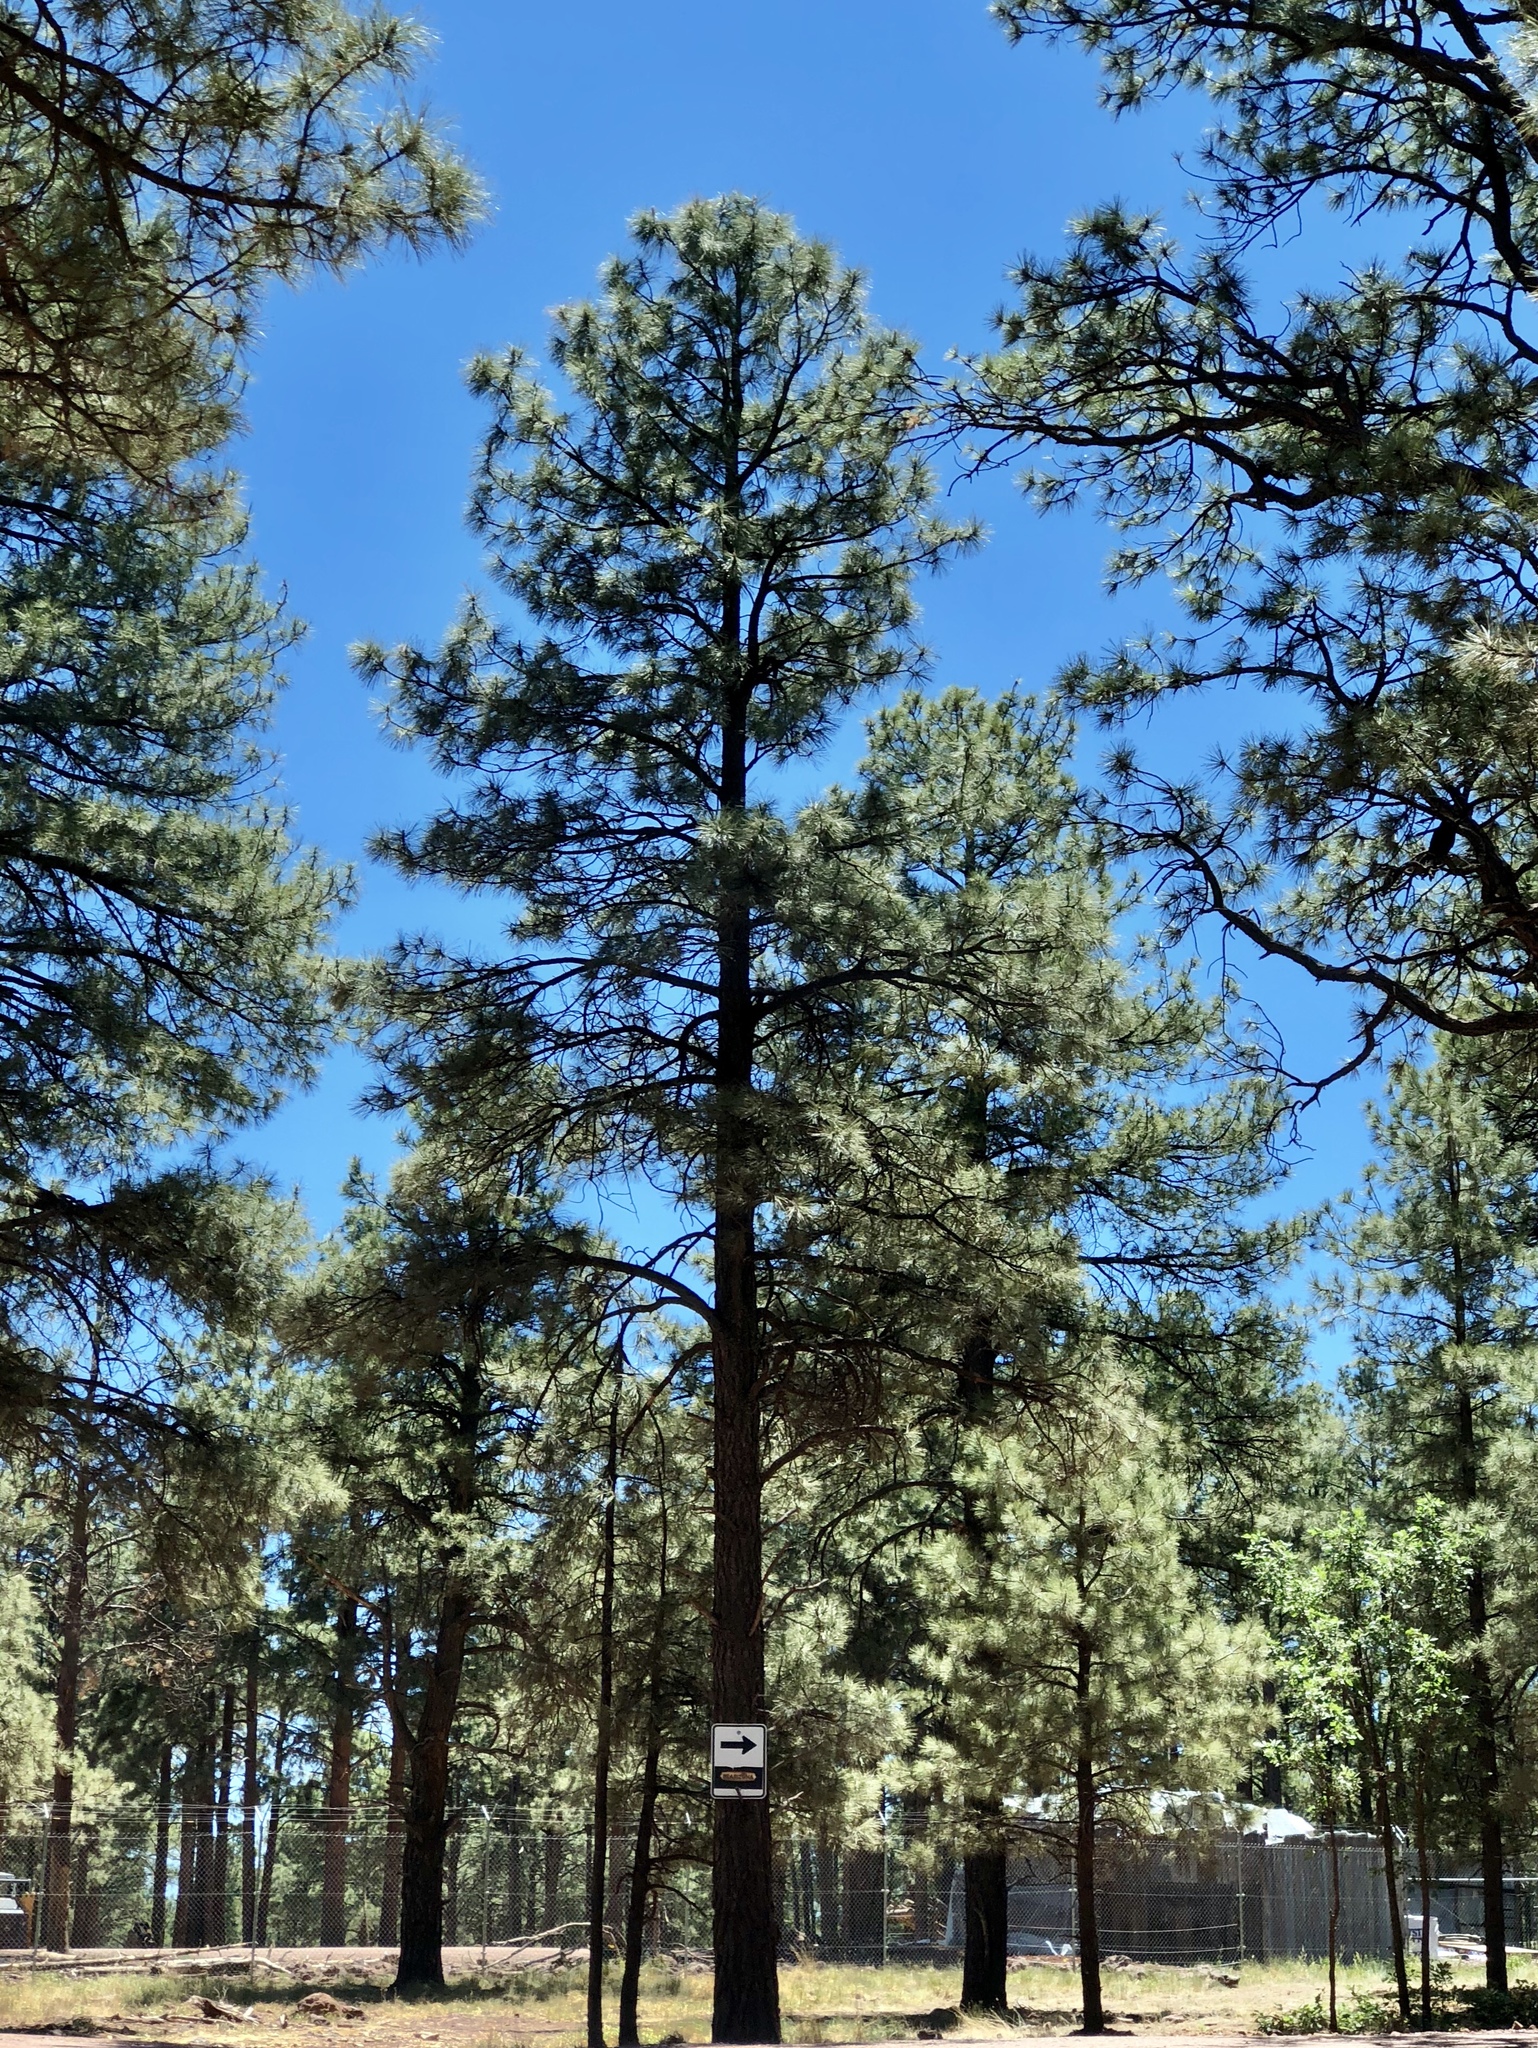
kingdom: Plantae
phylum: Tracheophyta
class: Pinopsida
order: Pinales
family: Pinaceae
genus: Pinus
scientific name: Pinus ponderosa
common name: Western yellow-pine
